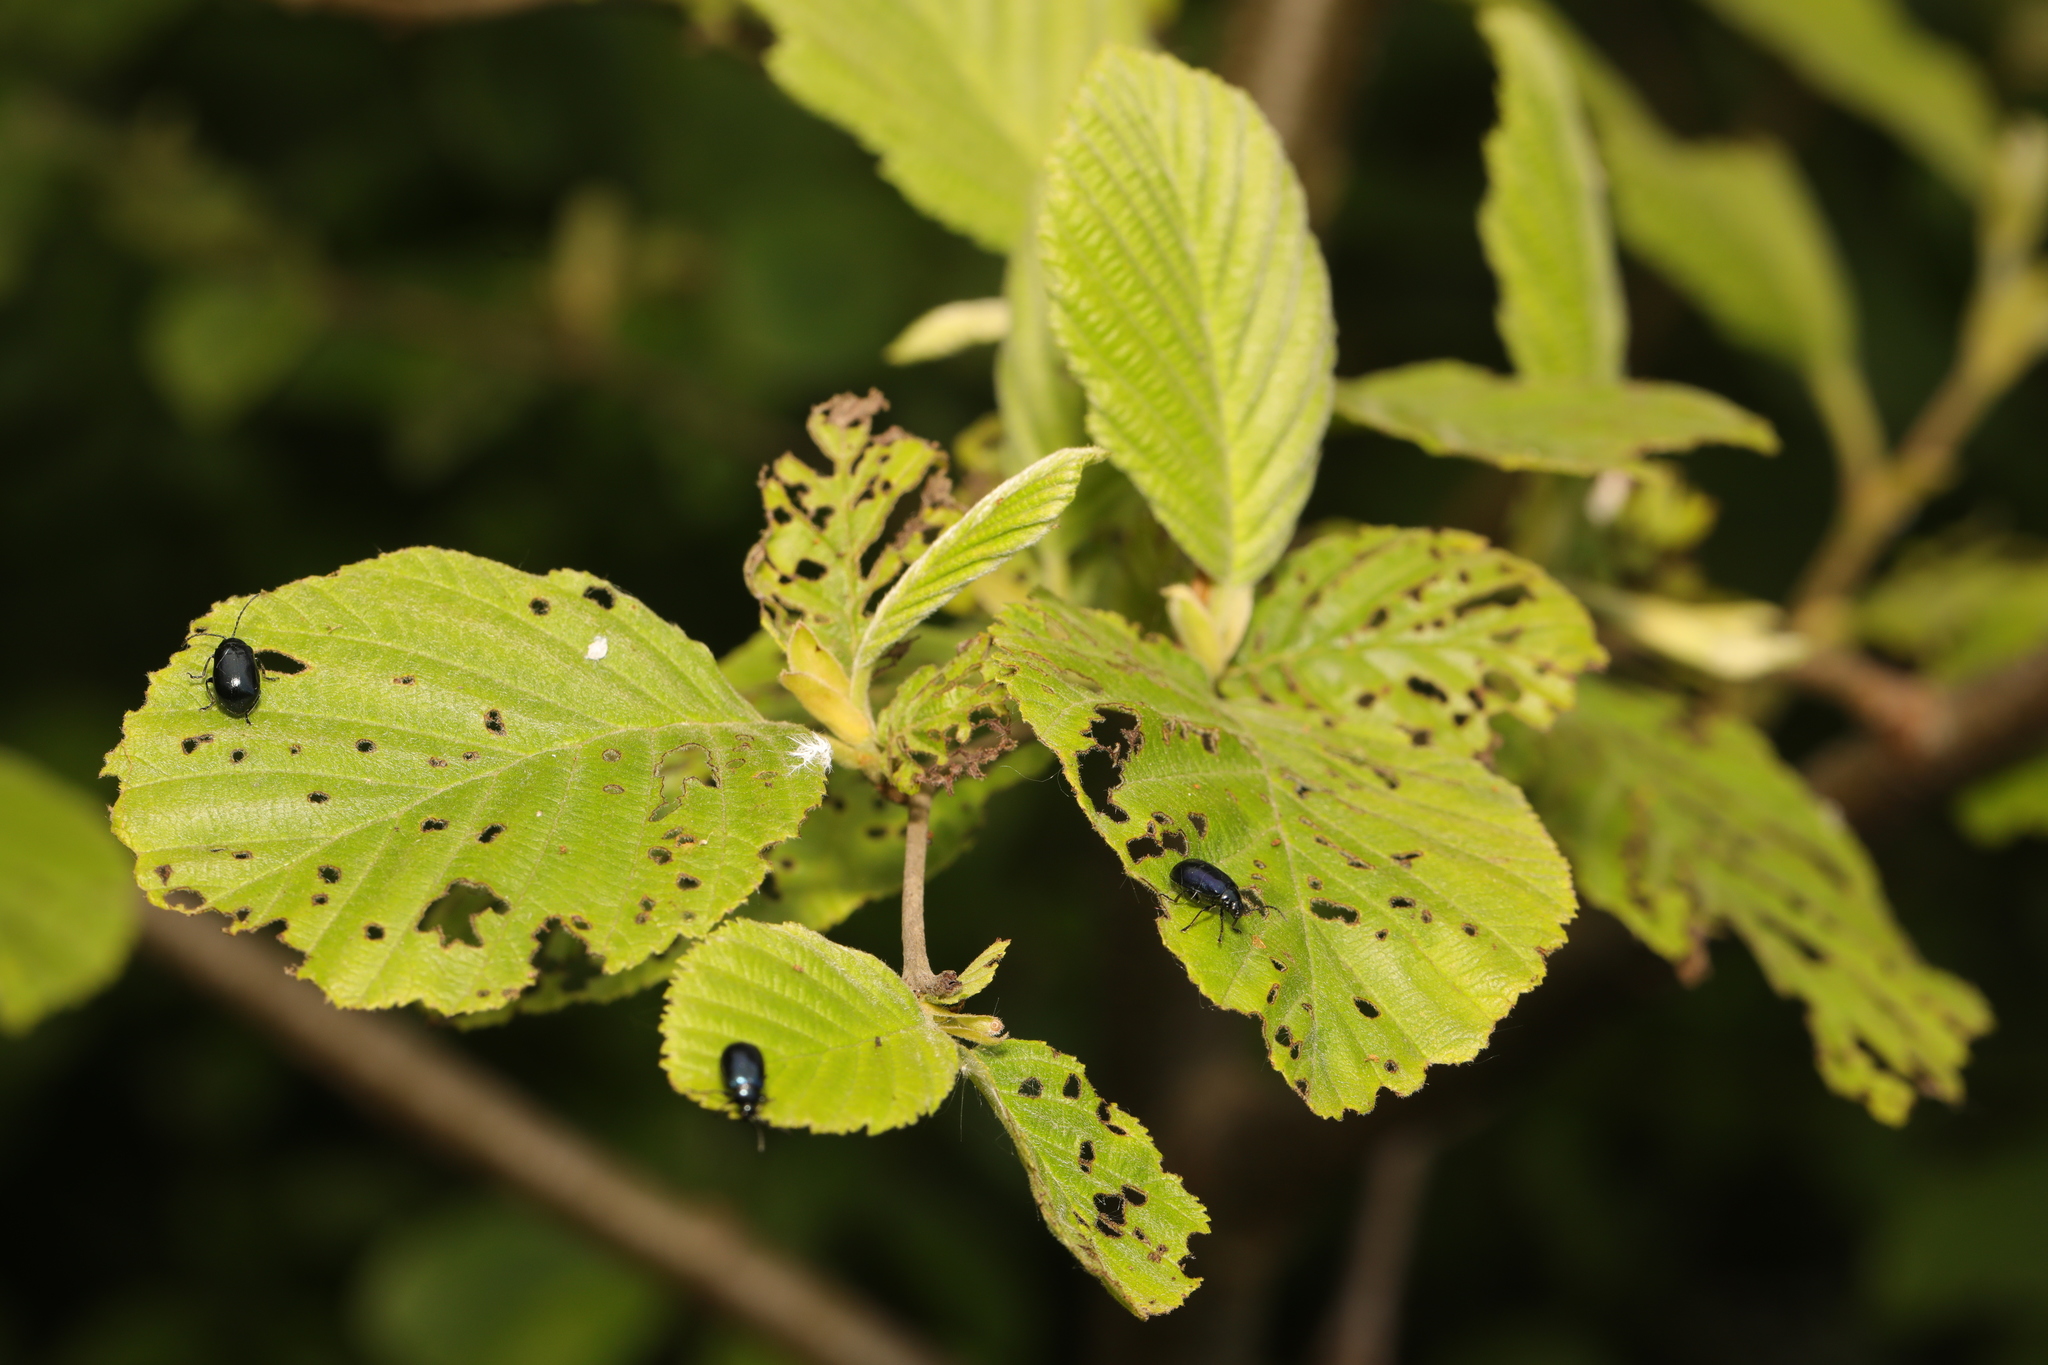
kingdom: Plantae
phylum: Tracheophyta
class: Magnoliopsida
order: Fagales
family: Betulaceae
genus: Alnus
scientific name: Alnus incana
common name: Grey alder
